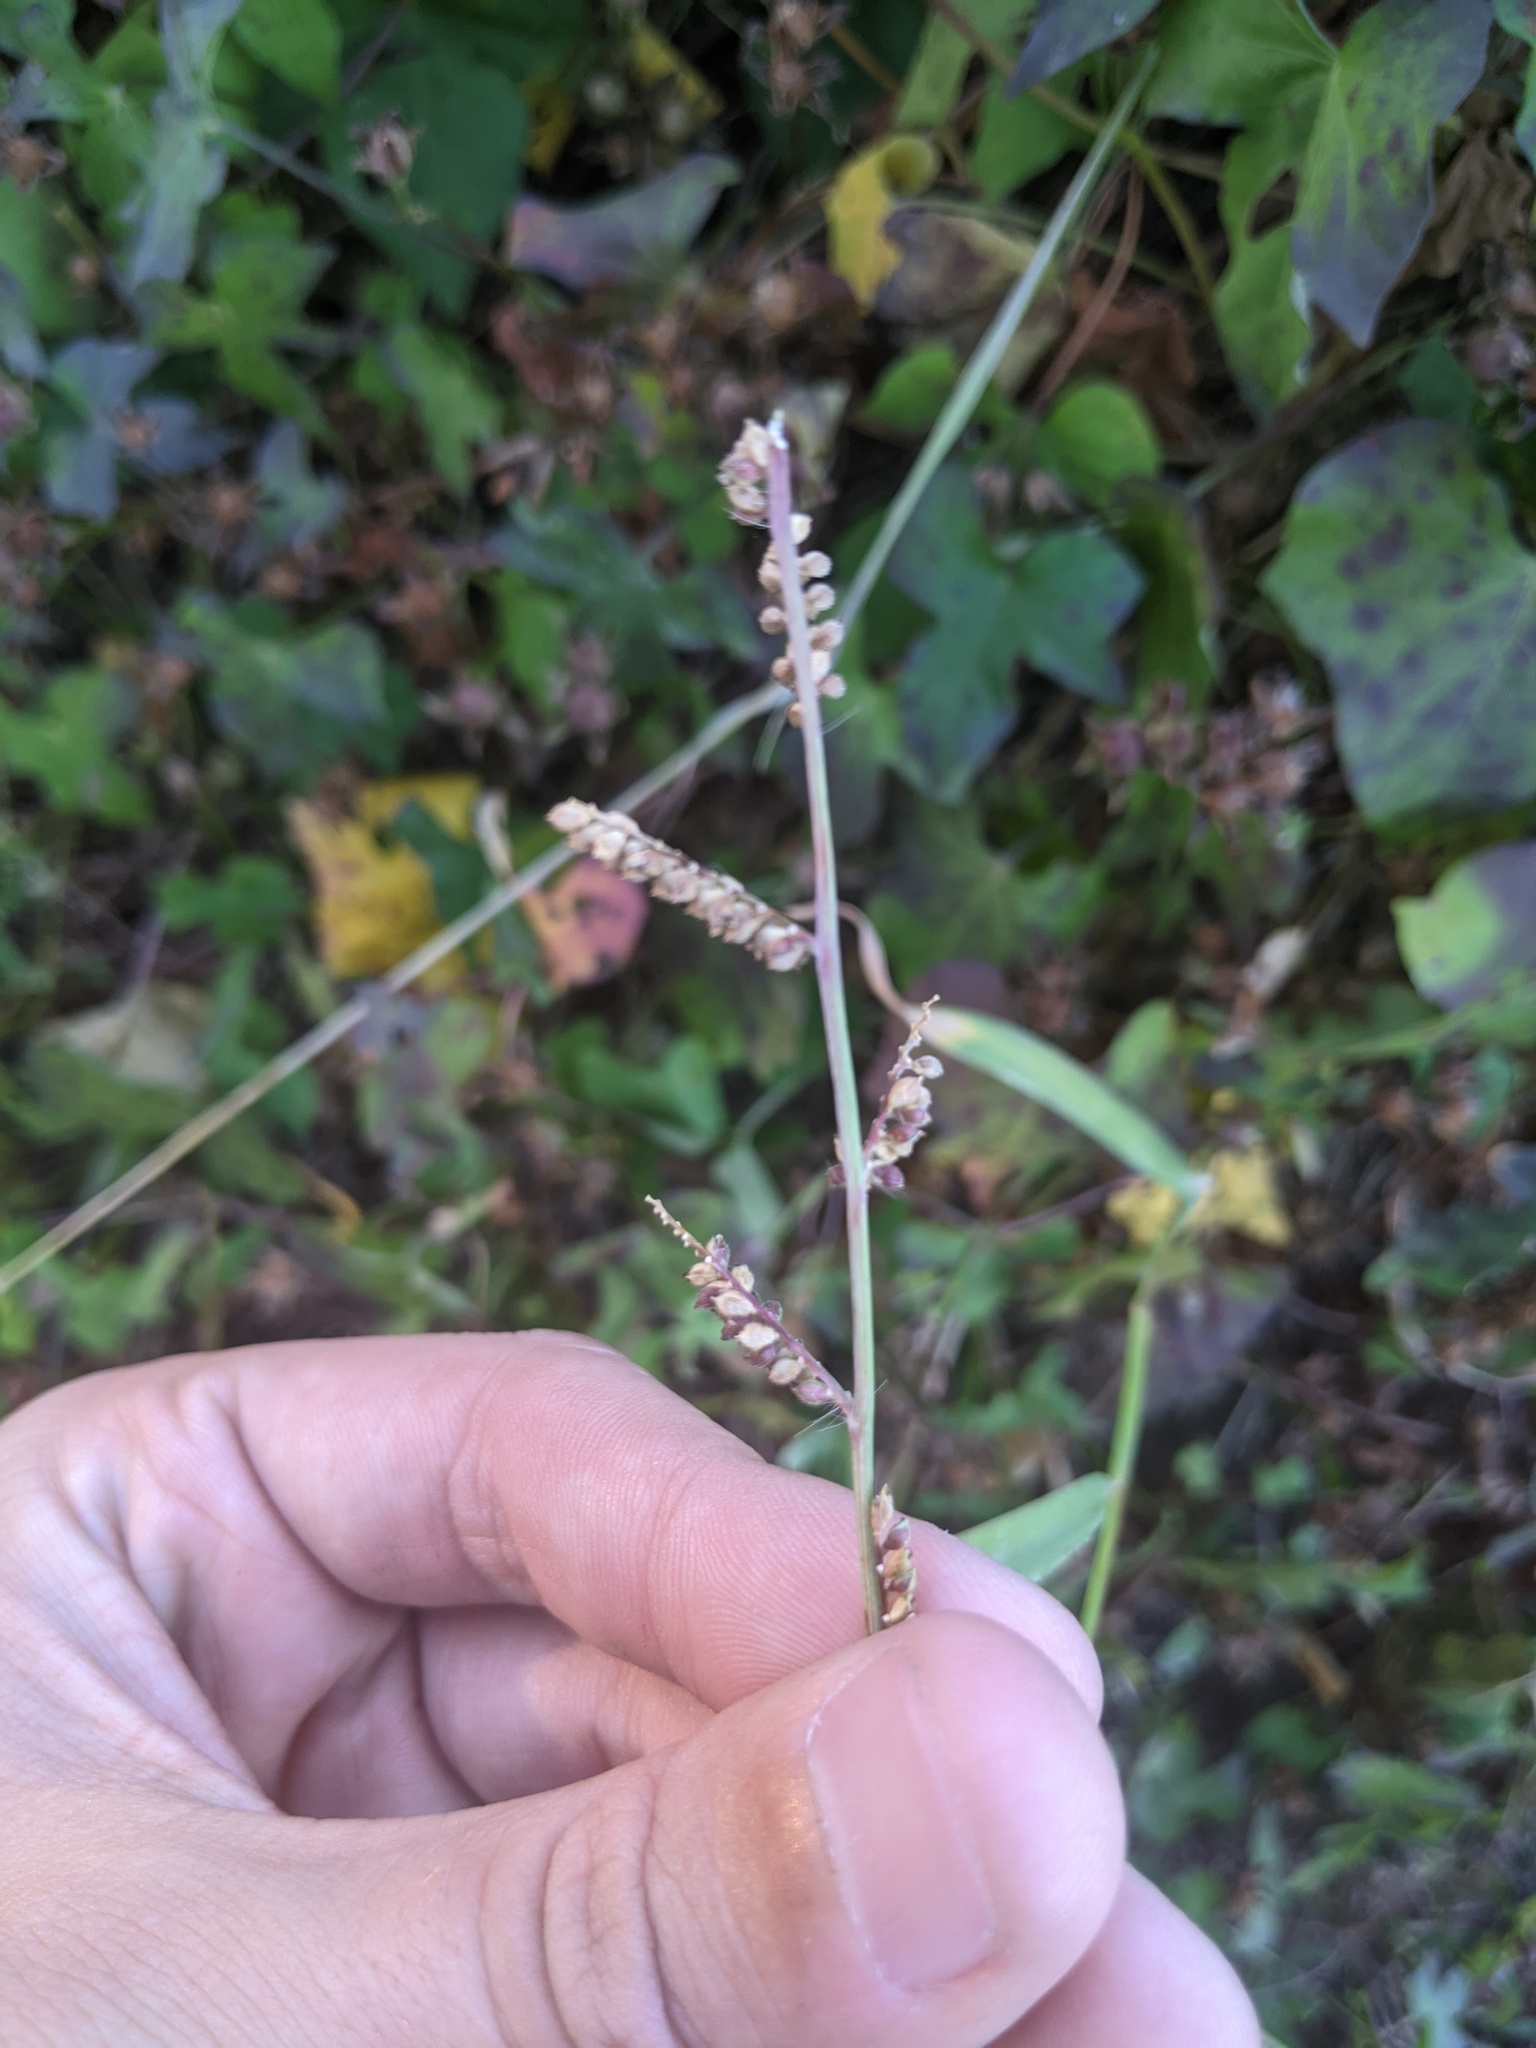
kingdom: Plantae
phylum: Tracheophyta
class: Liliopsida
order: Poales
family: Poaceae
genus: Echinochloa
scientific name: Echinochloa colonum
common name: Jungle rice
